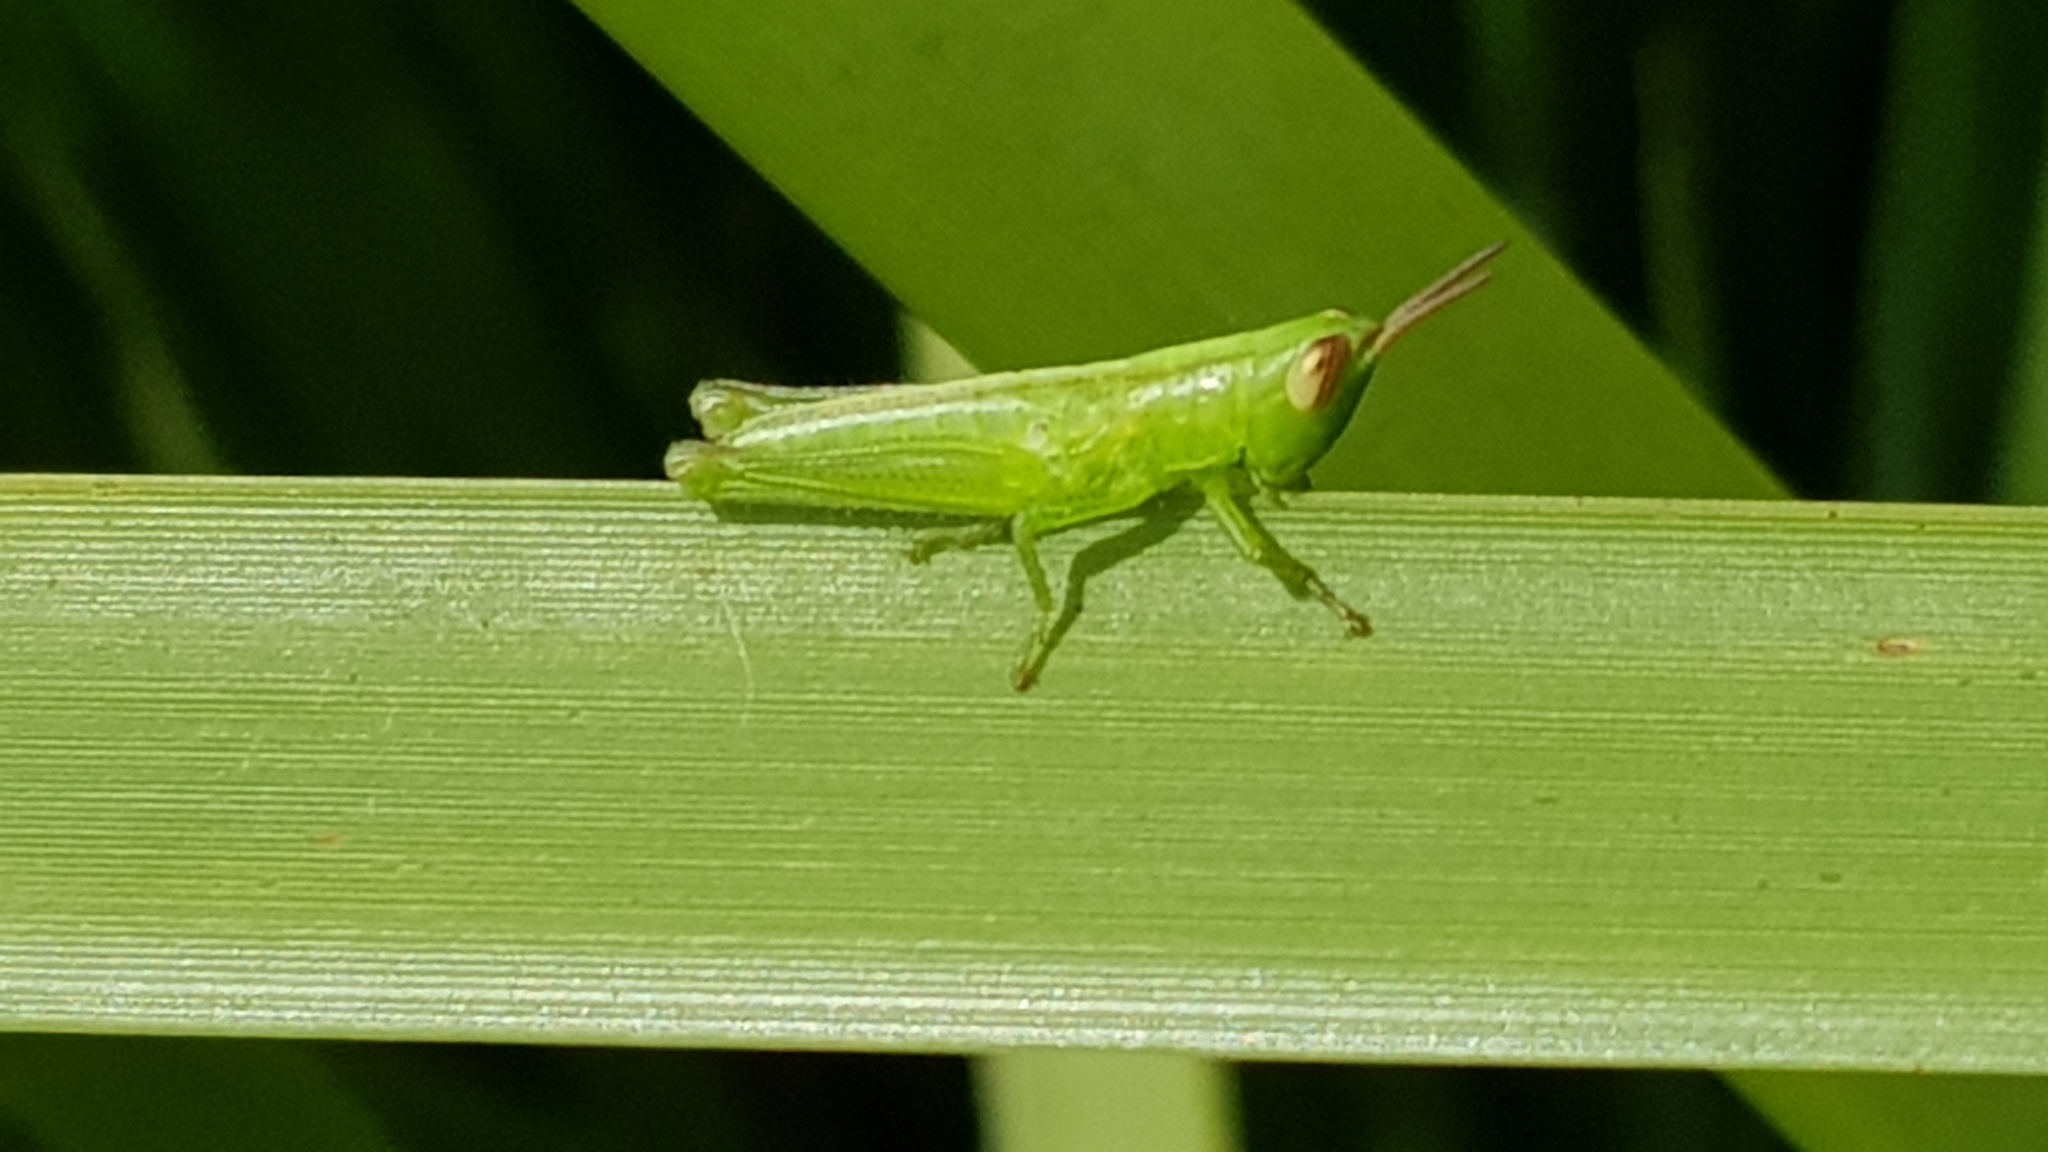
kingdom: Animalia
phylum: Arthropoda
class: Insecta
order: Orthoptera
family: Acrididae
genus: Bermius
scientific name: Bermius brachycerus
